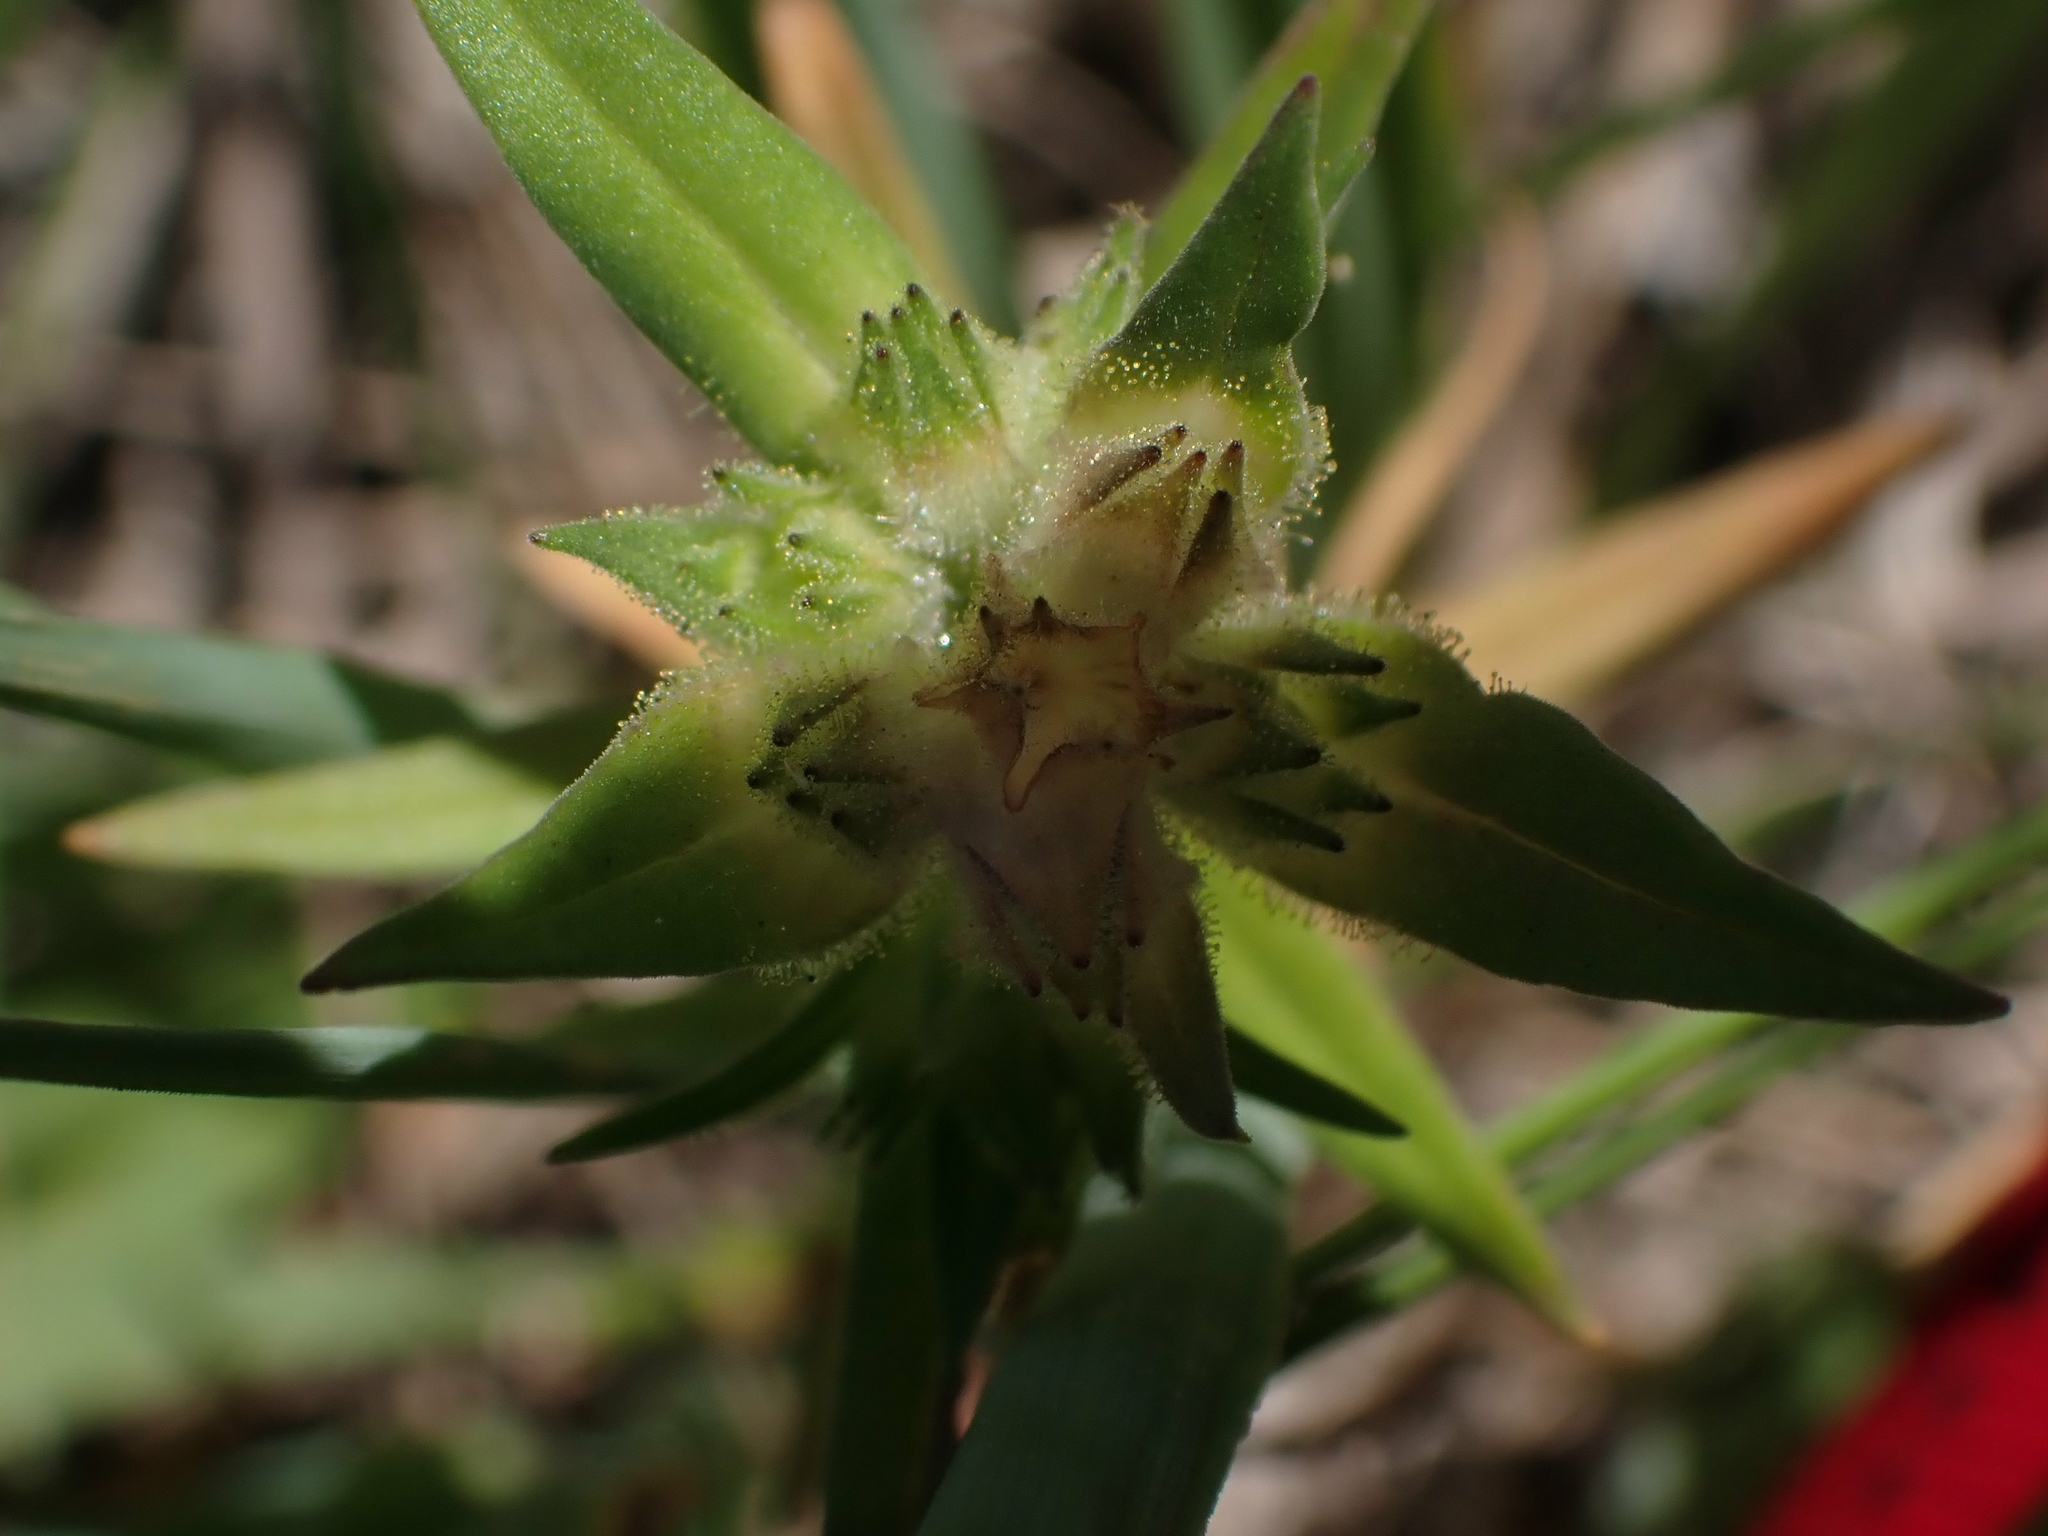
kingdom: Plantae
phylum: Tracheophyta
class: Magnoliopsida
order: Ericales
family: Polemoniaceae
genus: Collomia
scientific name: Collomia linearis
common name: Tiny trumpet
